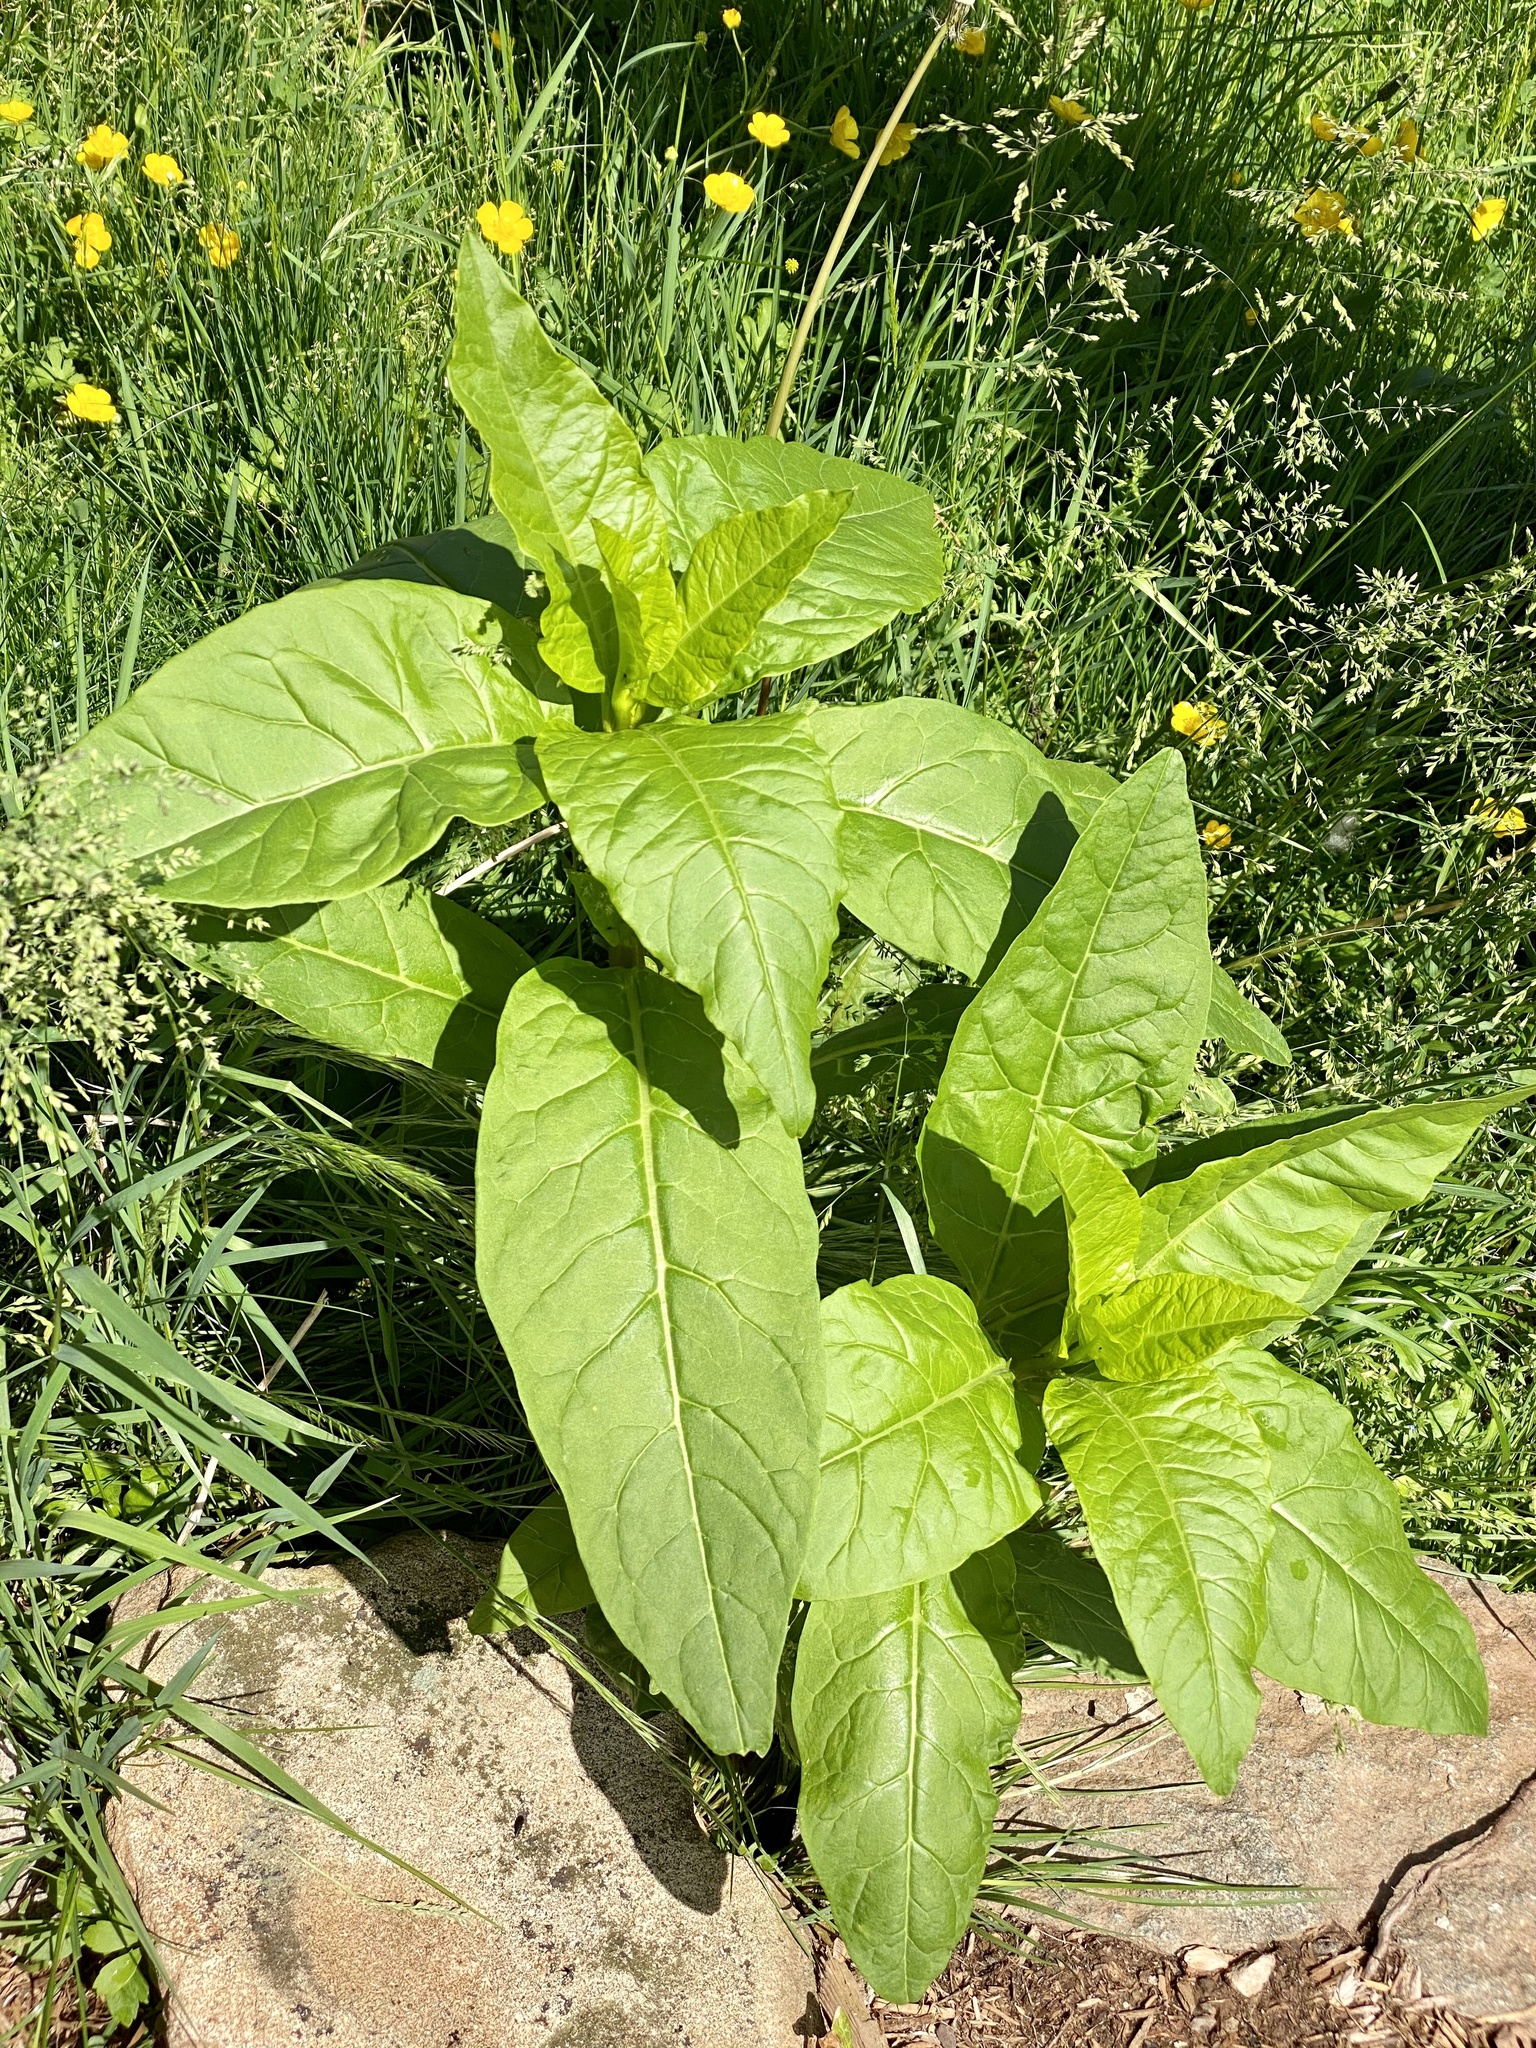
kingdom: Plantae
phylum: Tracheophyta
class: Magnoliopsida
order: Caryophyllales
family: Phytolaccaceae
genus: Phytolacca
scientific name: Phytolacca americana
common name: American pokeweed
